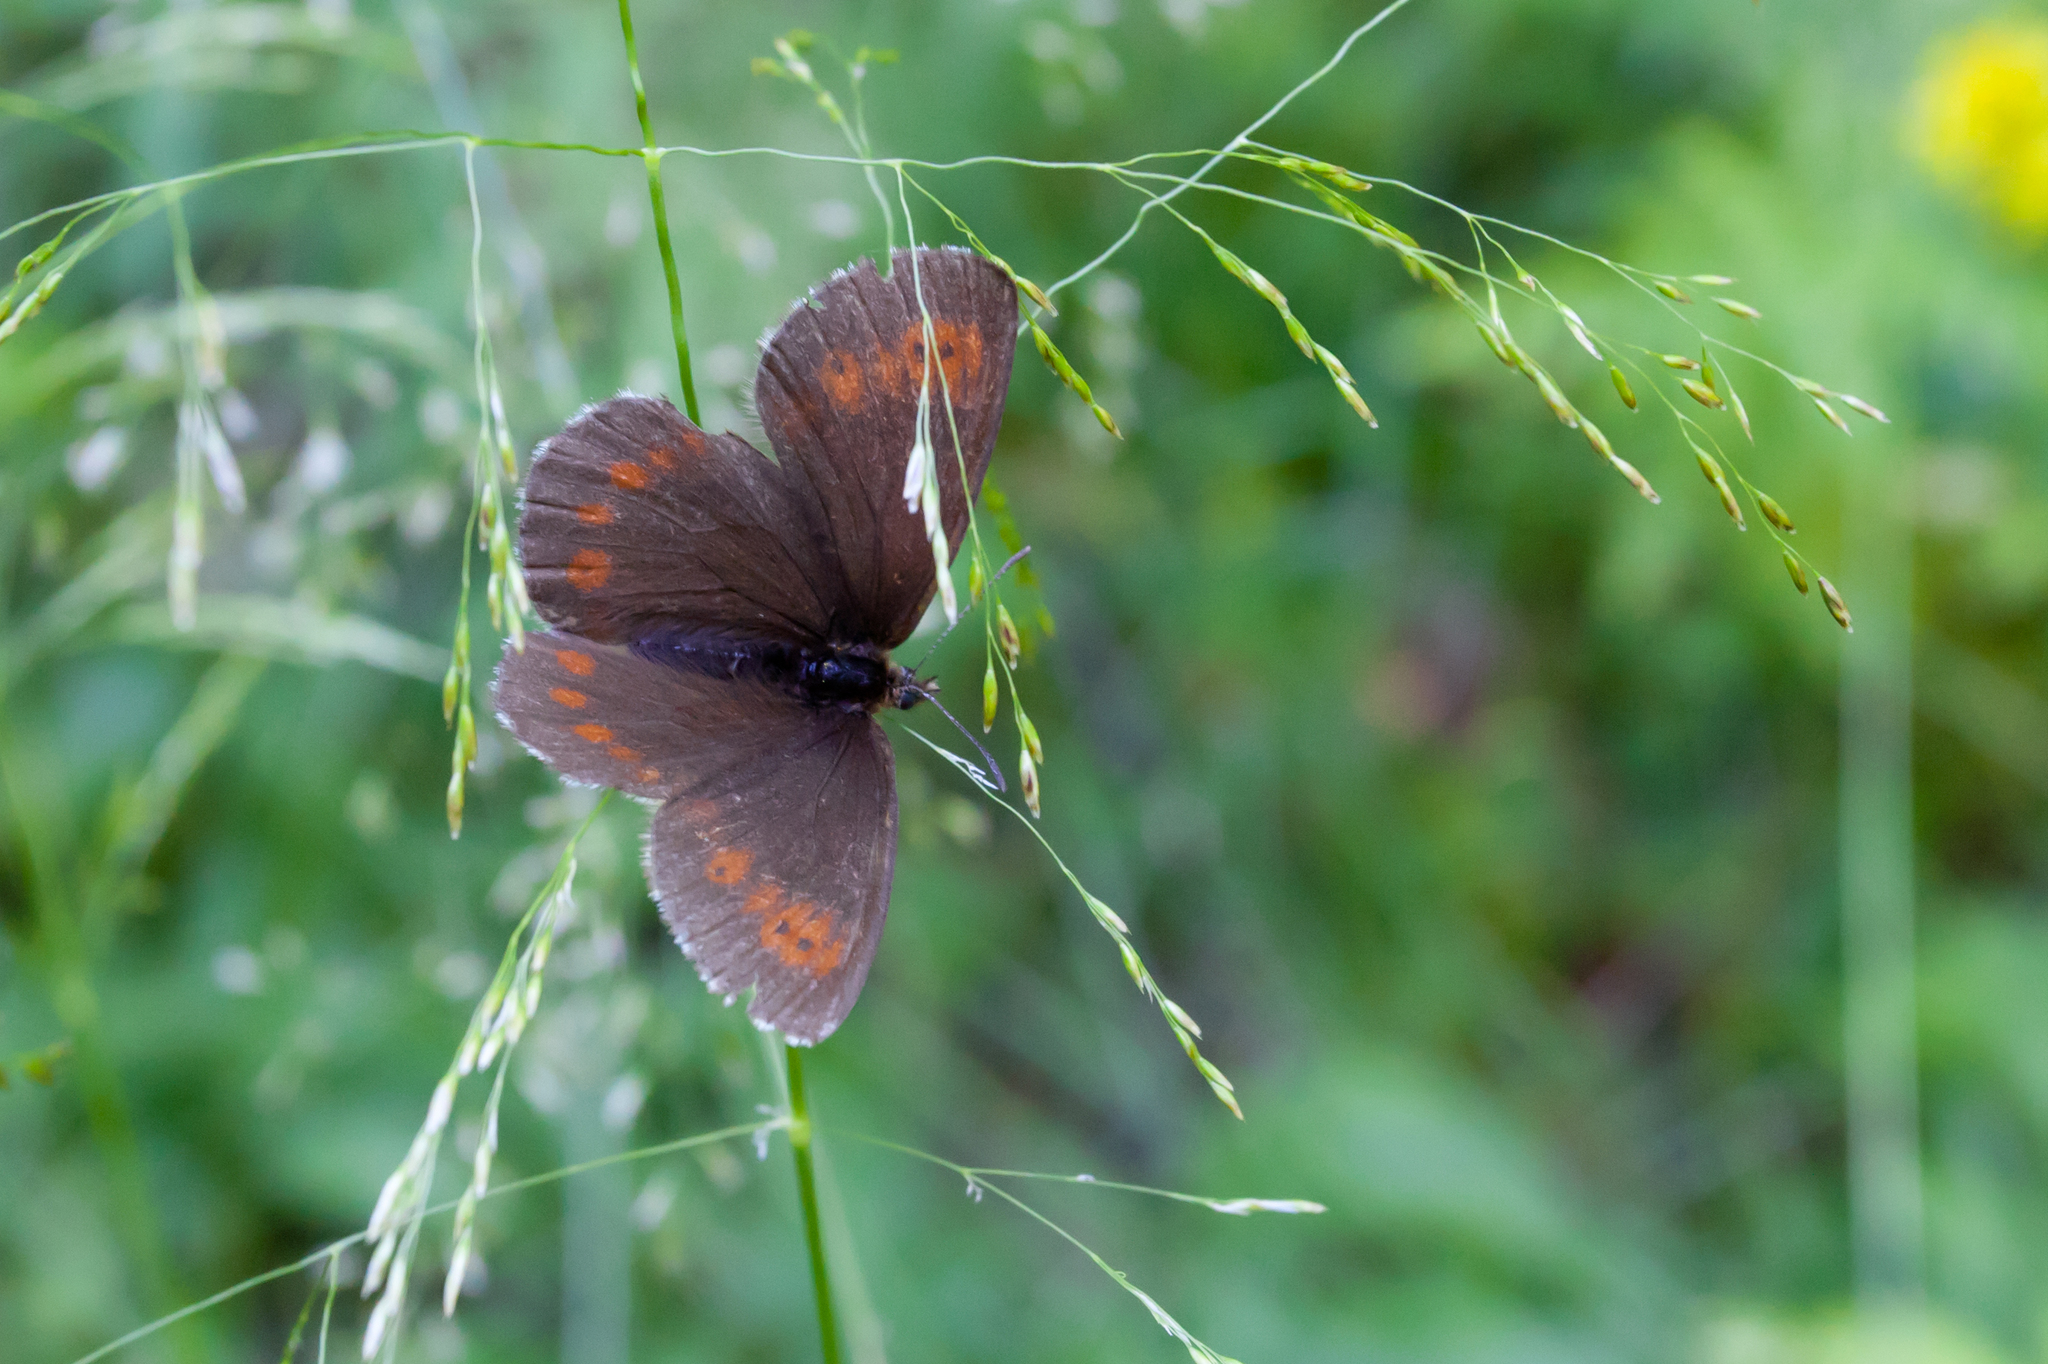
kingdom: Animalia
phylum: Arthropoda
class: Insecta
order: Lepidoptera
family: Nymphalidae
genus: Erebia
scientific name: Erebia euryale
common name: Large ringlet
